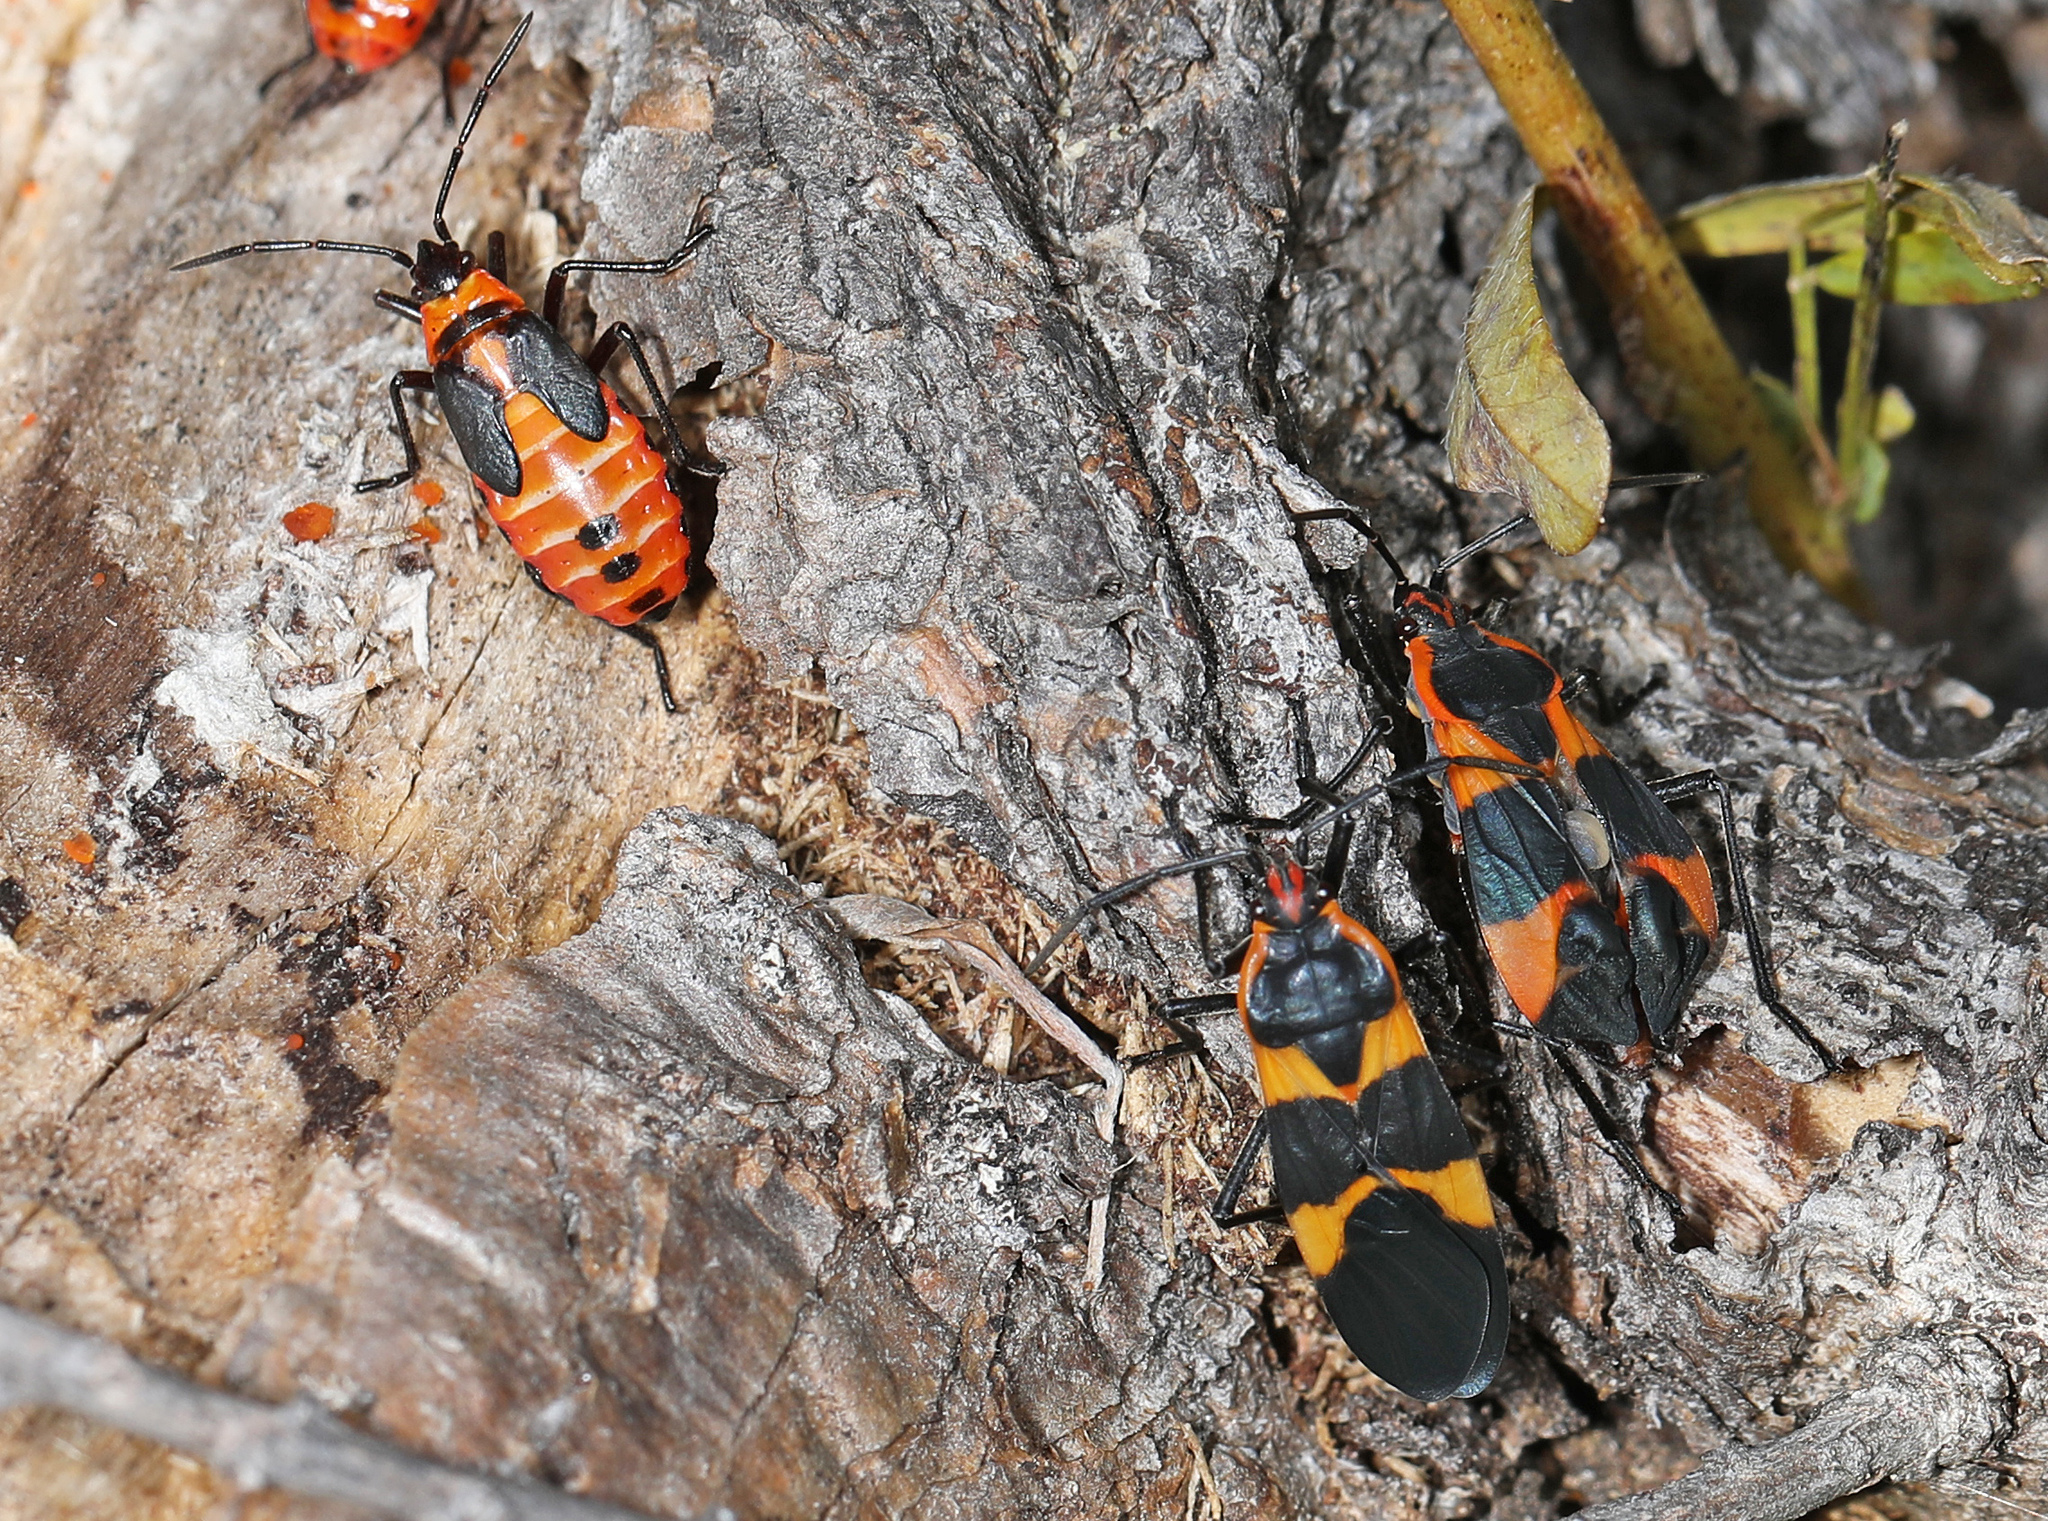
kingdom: Animalia
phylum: Arthropoda
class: Insecta
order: Hemiptera
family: Lygaeidae
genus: Oncopeltus
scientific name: Oncopeltus fasciatus
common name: Large milkweed bug
